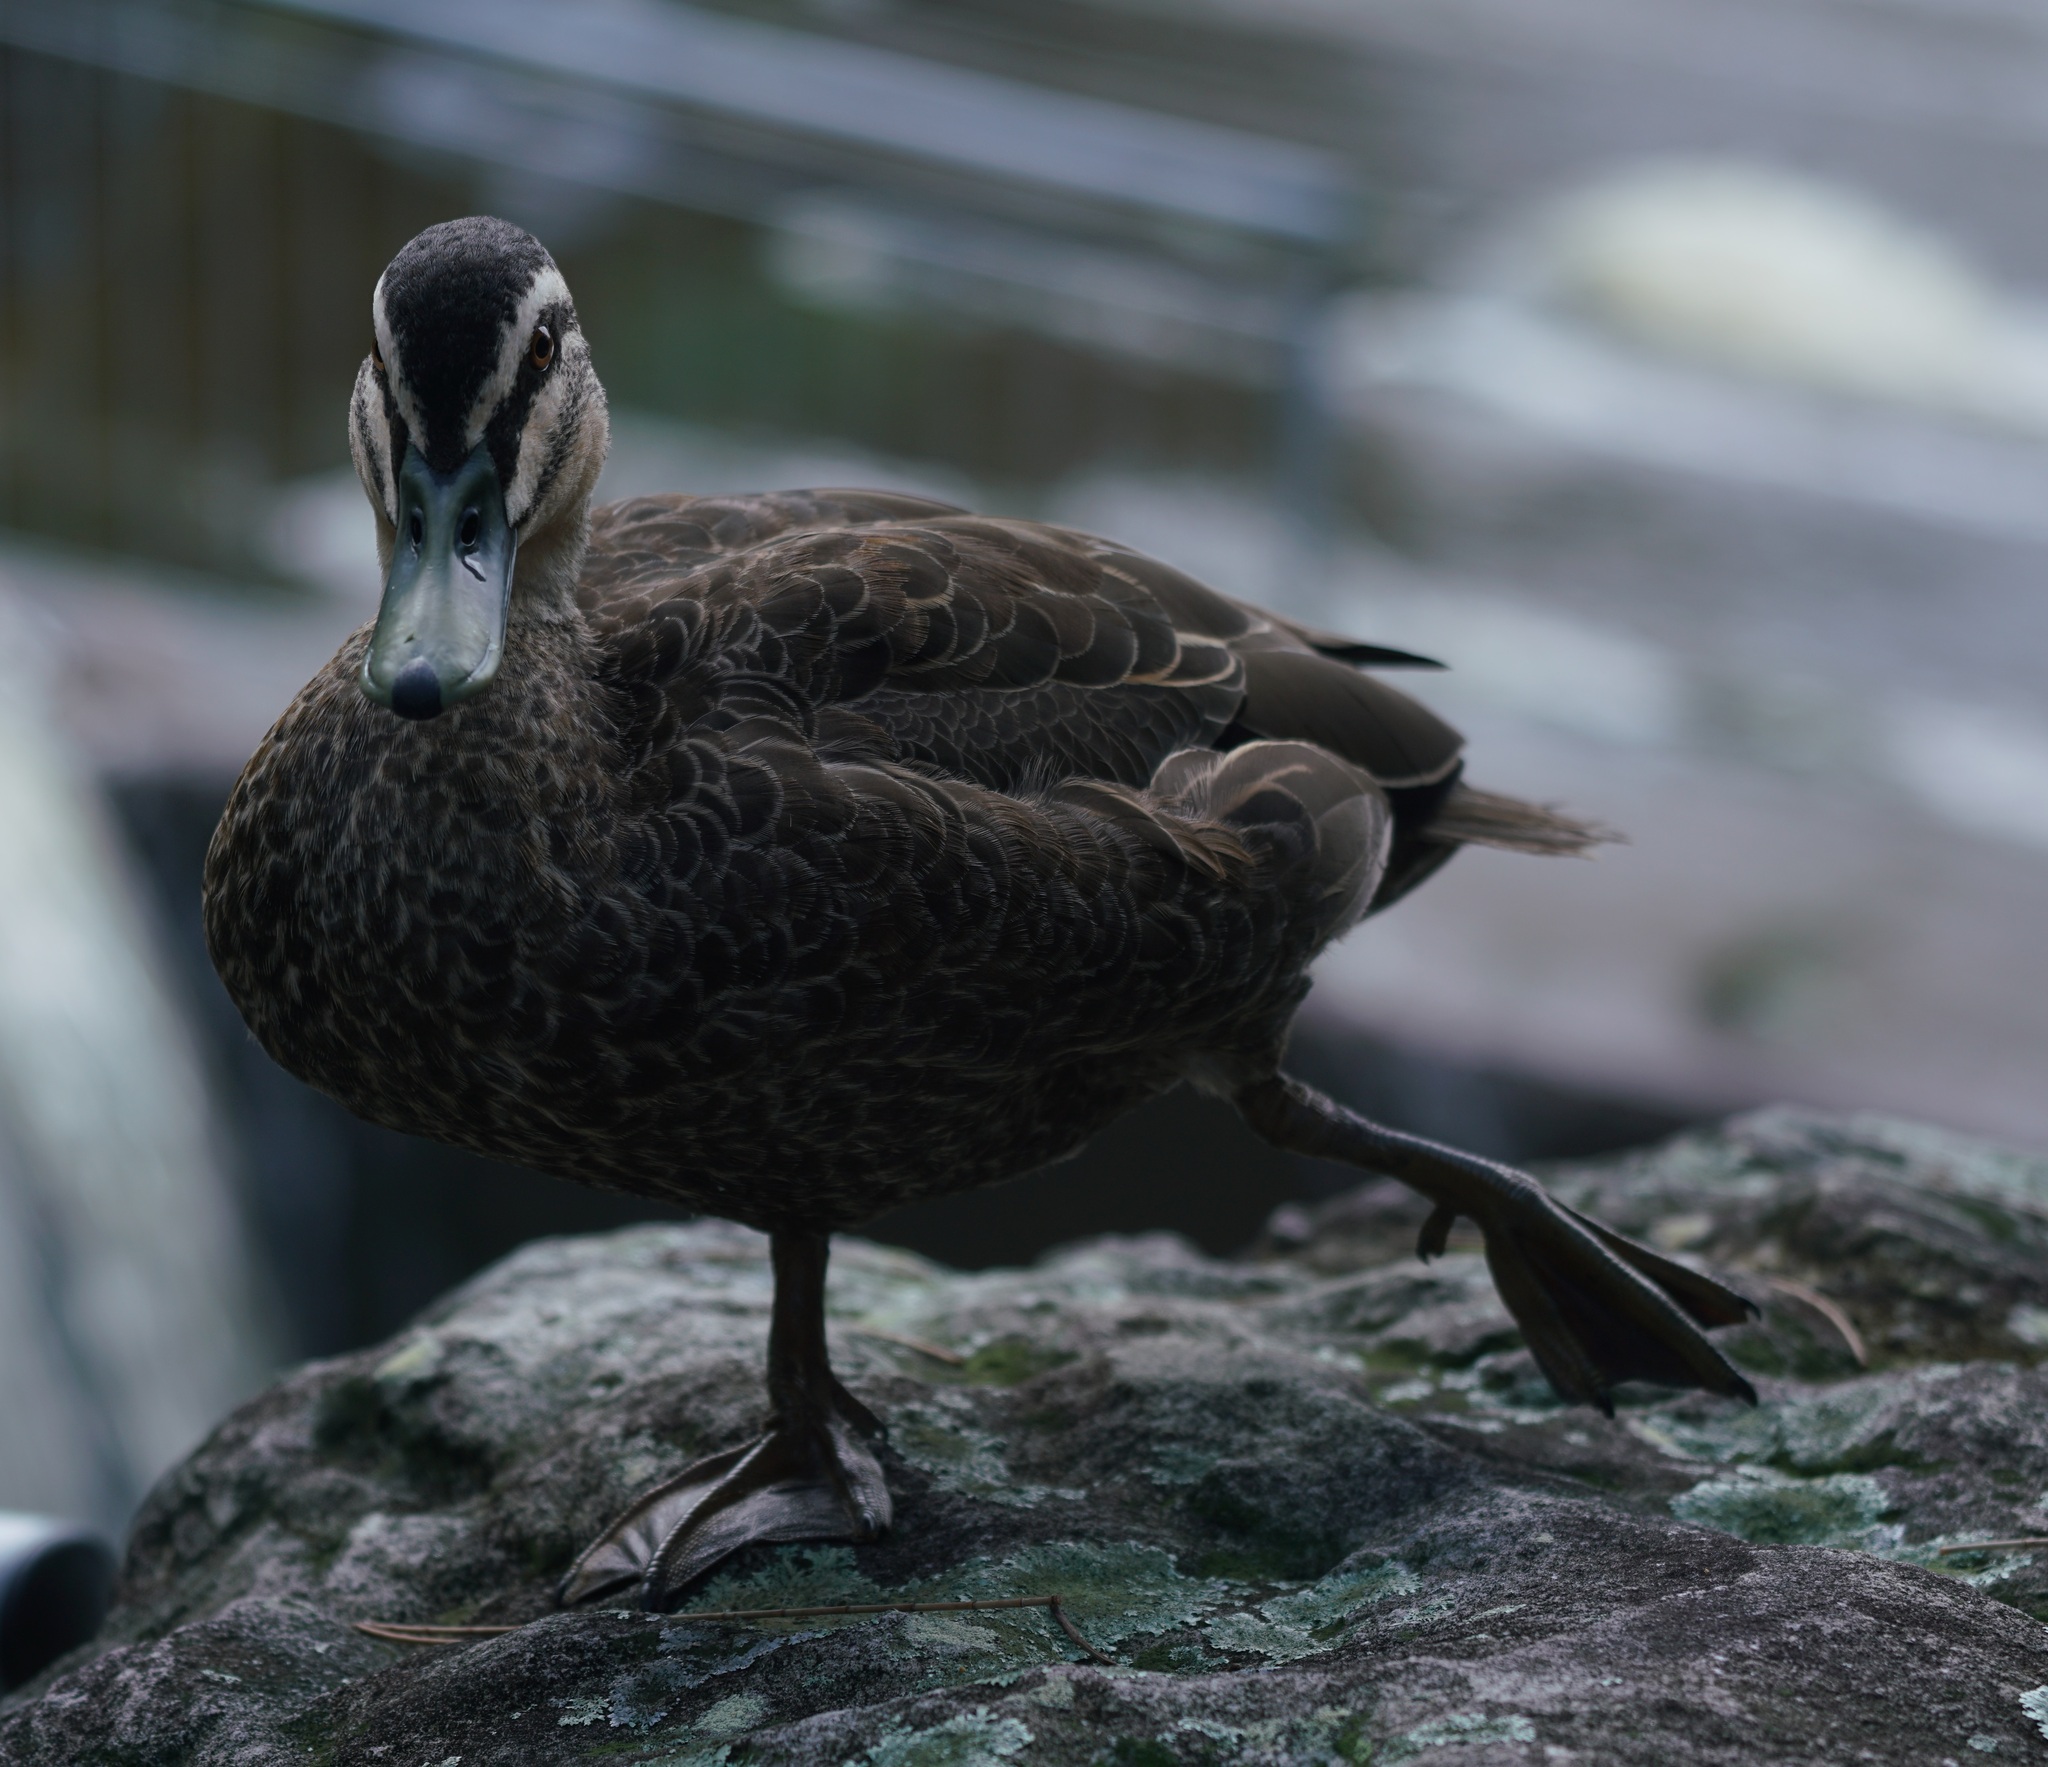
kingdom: Animalia
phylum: Chordata
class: Aves
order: Anseriformes
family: Anatidae
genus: Anas
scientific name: Anas superciliosa
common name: Pacific black duck
